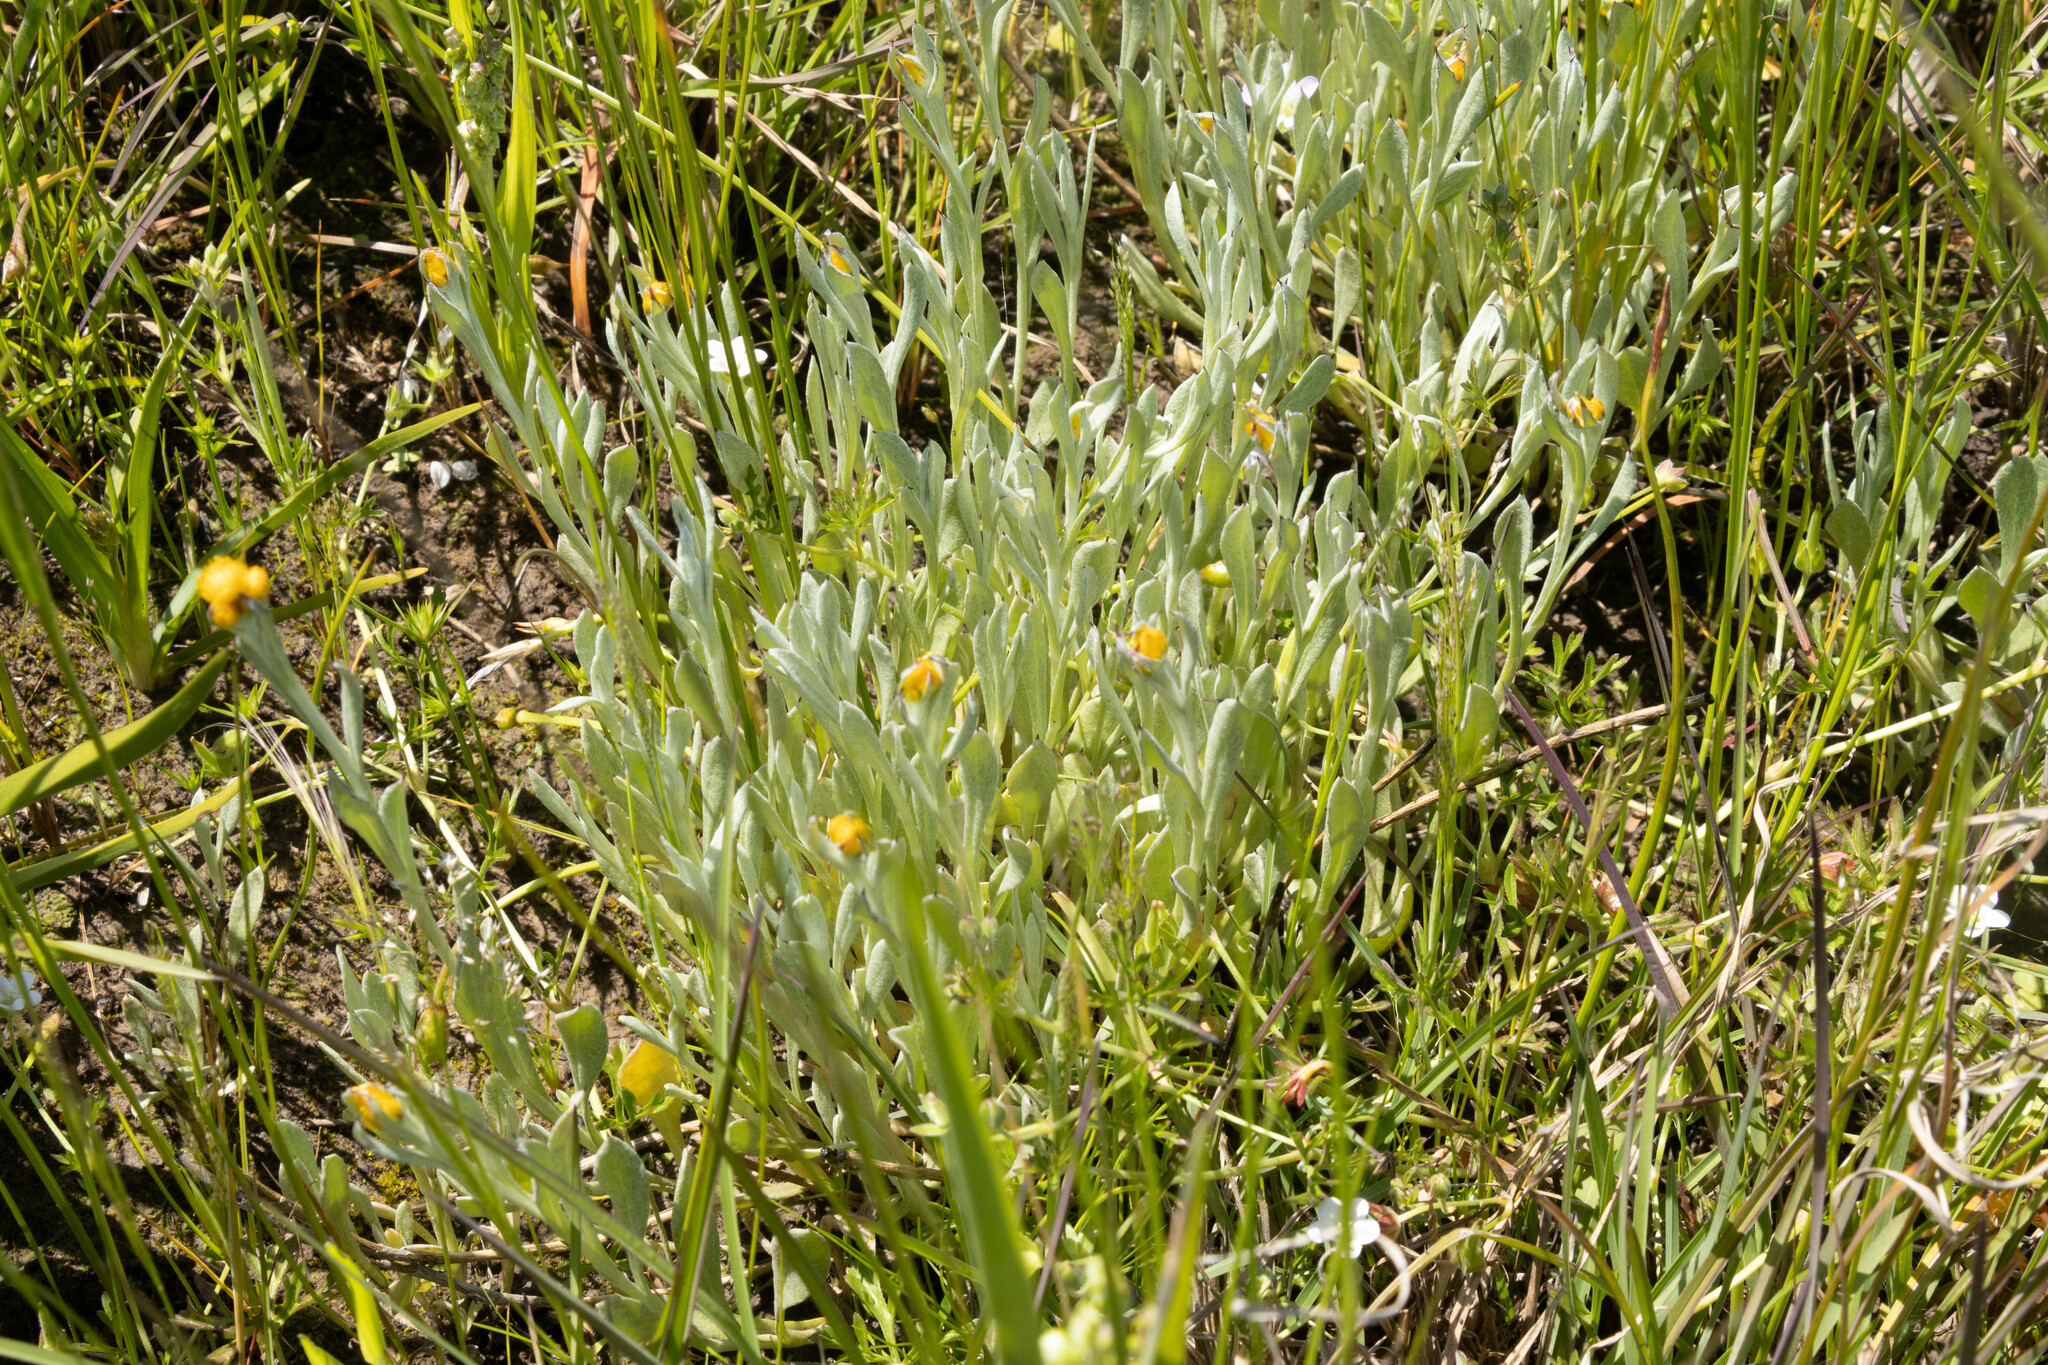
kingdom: Plantae
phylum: Tracheophyta
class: Magnoliopsida
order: Asterales
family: Asteraceae
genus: Chrysocephalum
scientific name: Chrysocephalum apiculatum
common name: Common everlasting
